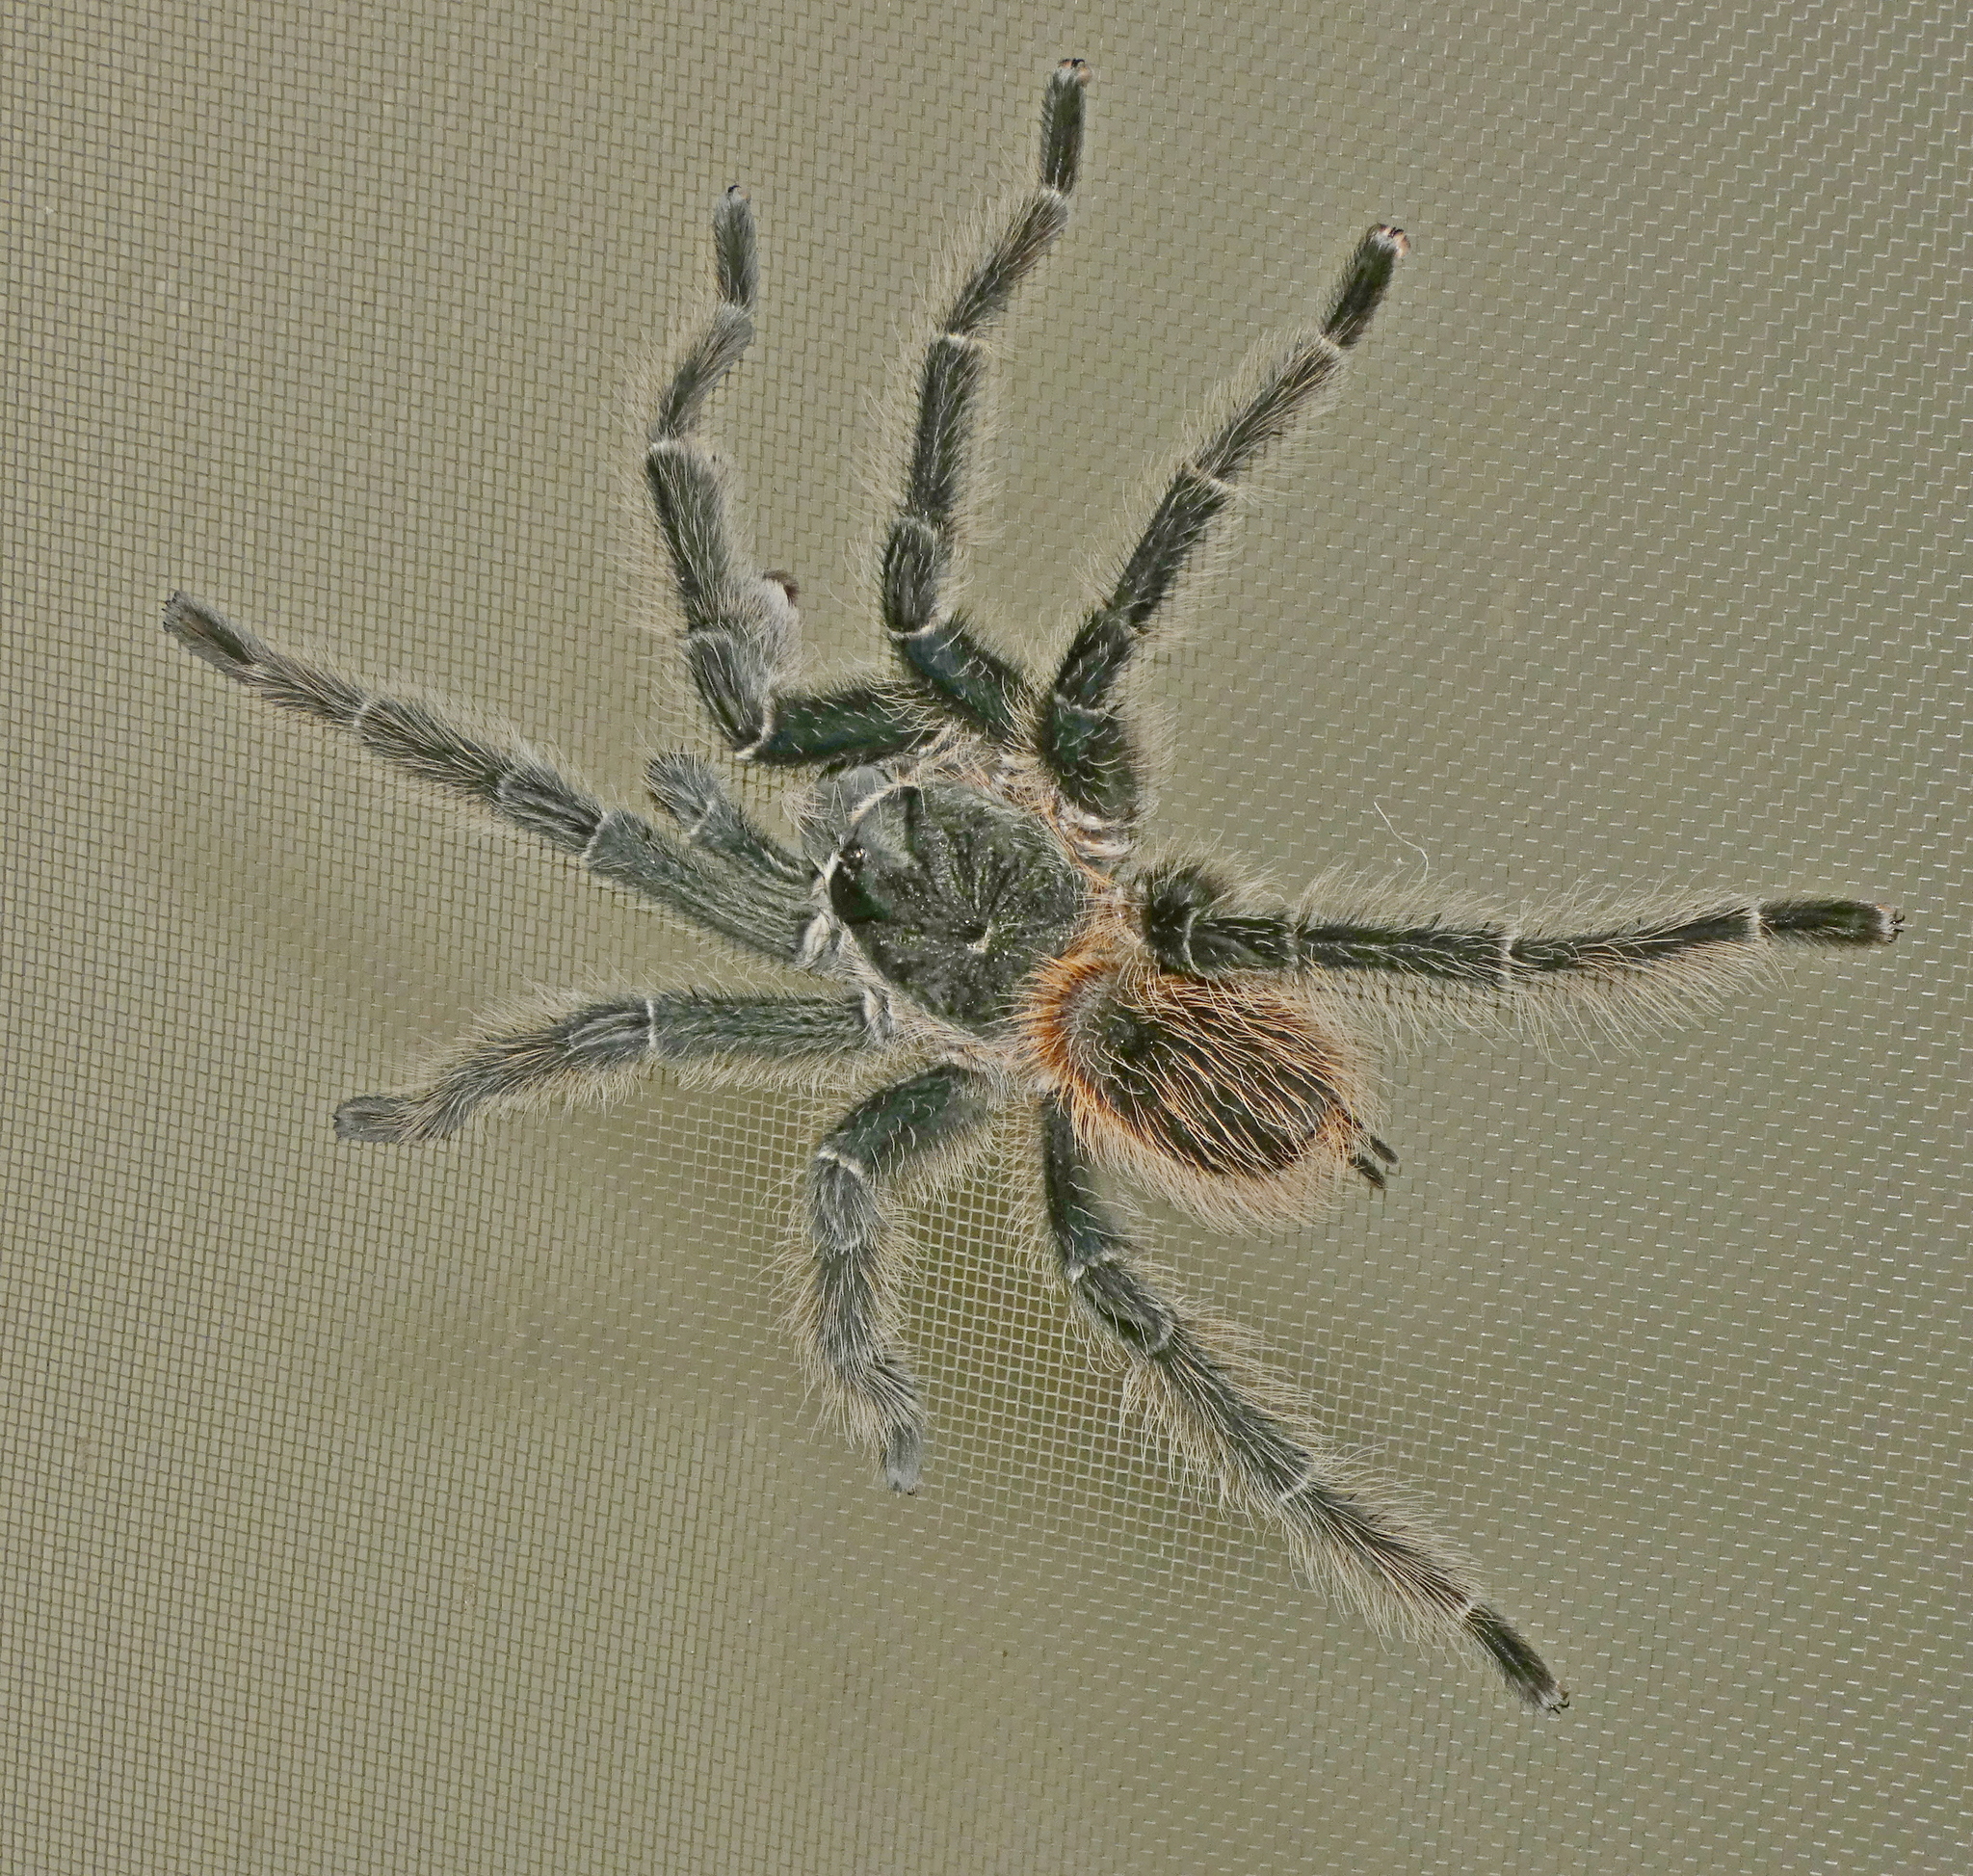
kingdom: Animalia
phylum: Arthropoda
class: Arachnida
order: Araneae
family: Theraphosidae
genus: Lasiodora
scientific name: Lasiodora parahybana
